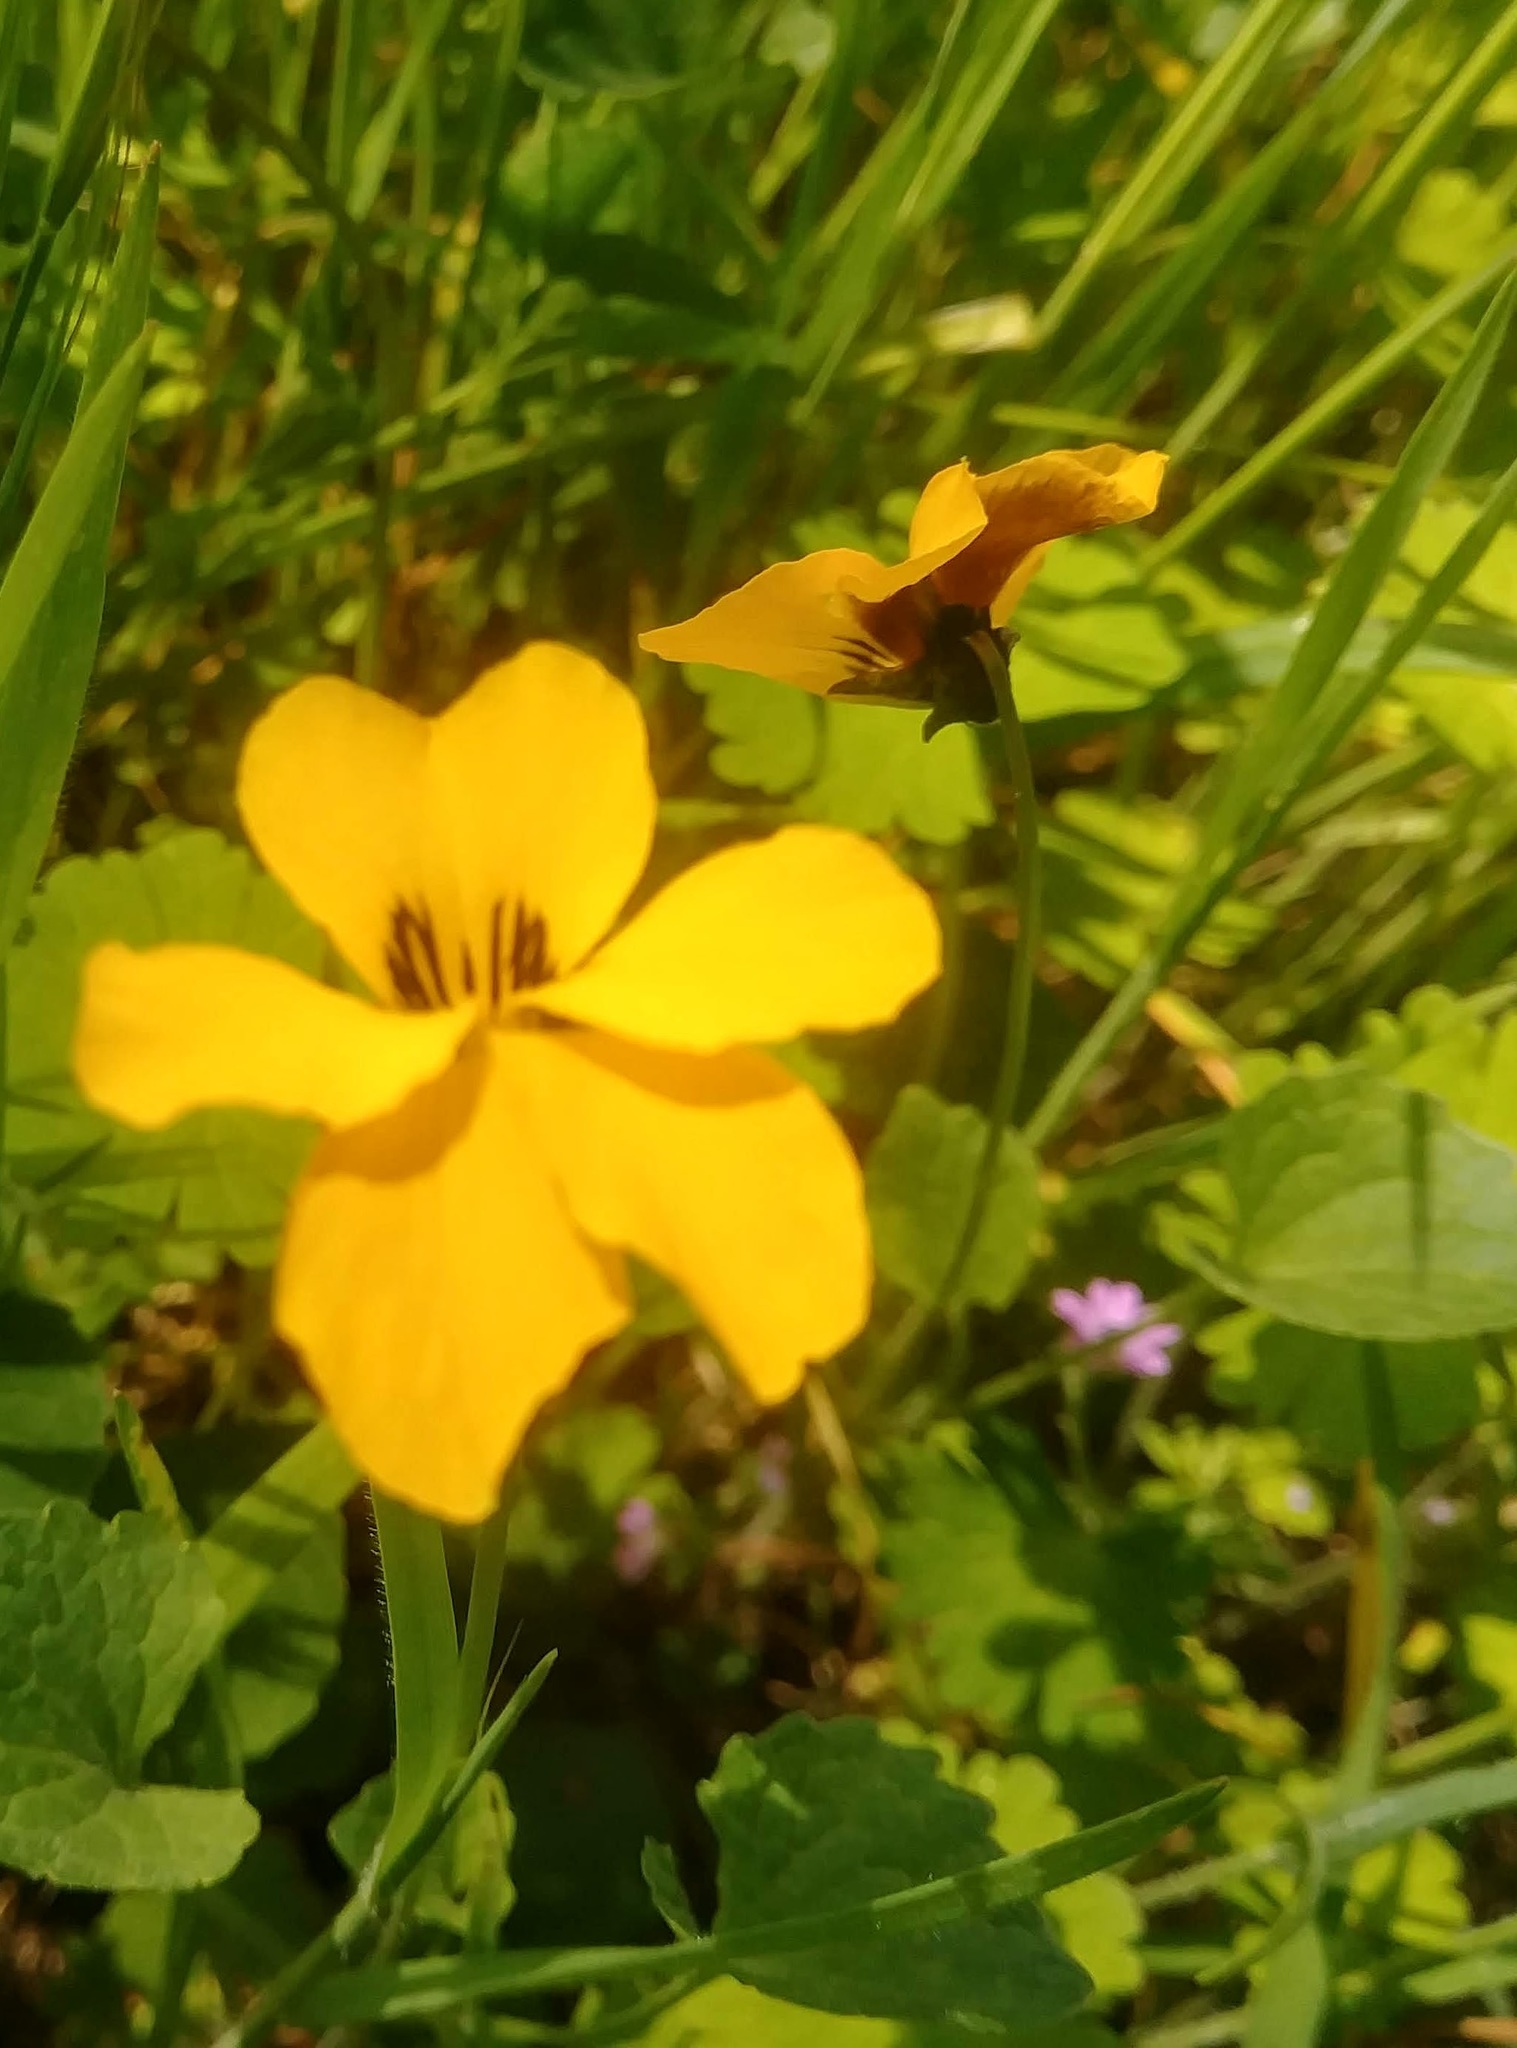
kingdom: Plantae
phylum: Tracheophyta
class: Magnoliopsida
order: Malpighiales
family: Violaceae
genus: Viola
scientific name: Viola pedunculata
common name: California golden violet
